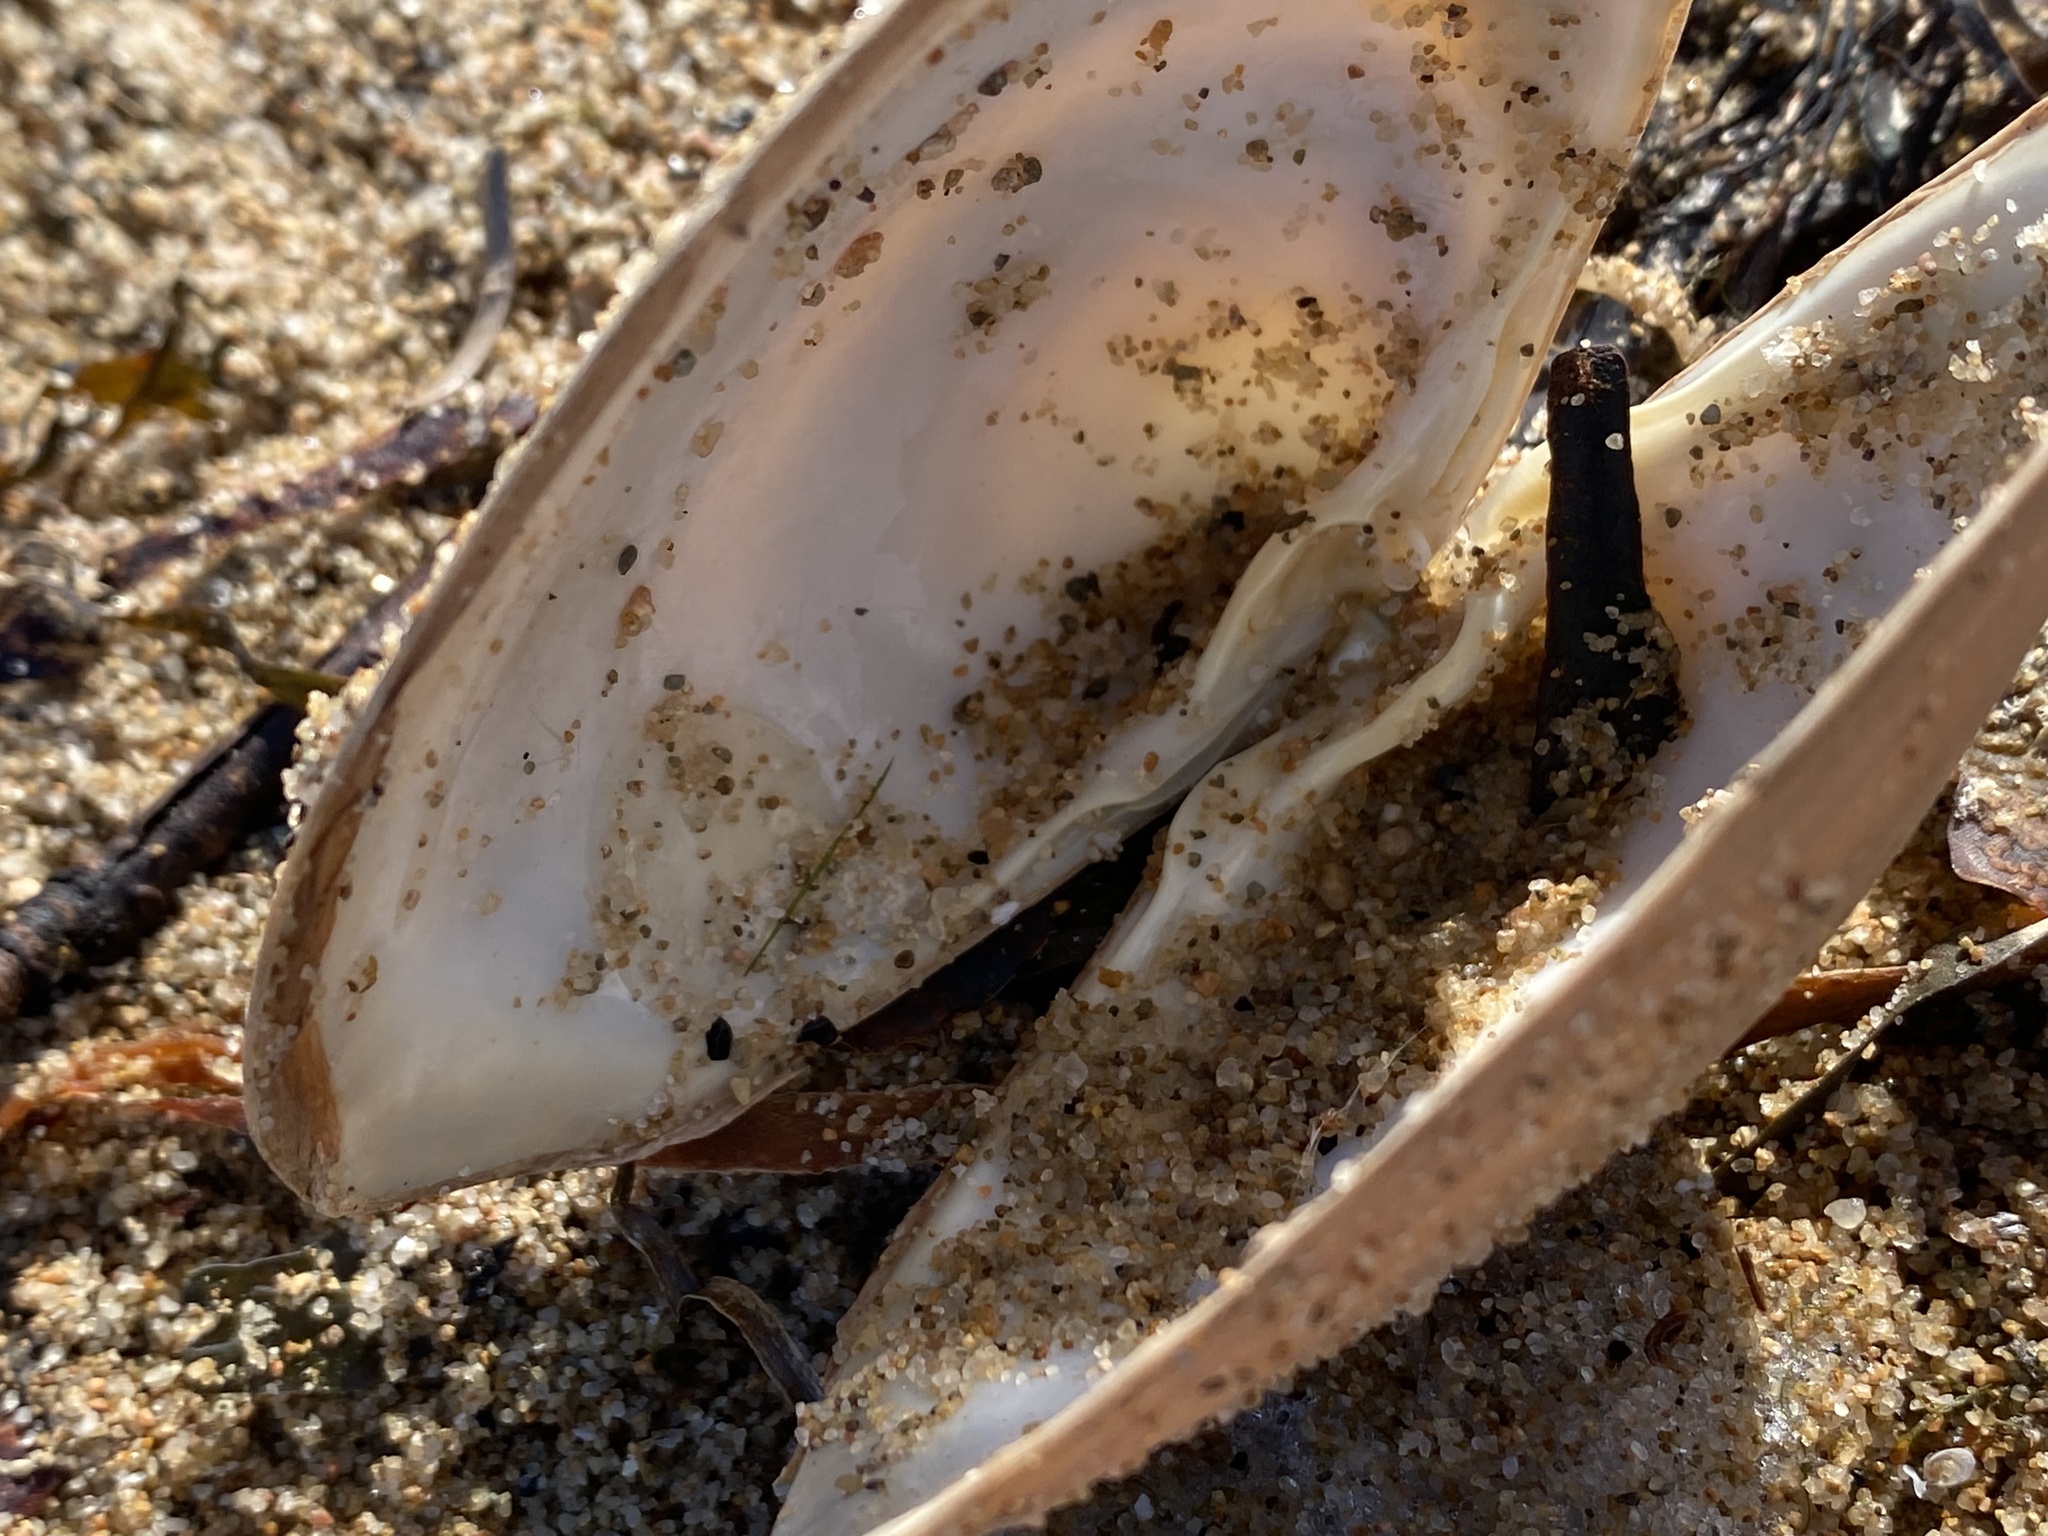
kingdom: Animalia
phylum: Mollusca
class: Bivalvia
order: Venerida
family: Mactridae
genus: Spisula
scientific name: Spisula solidissima
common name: Atlantic surf clam
